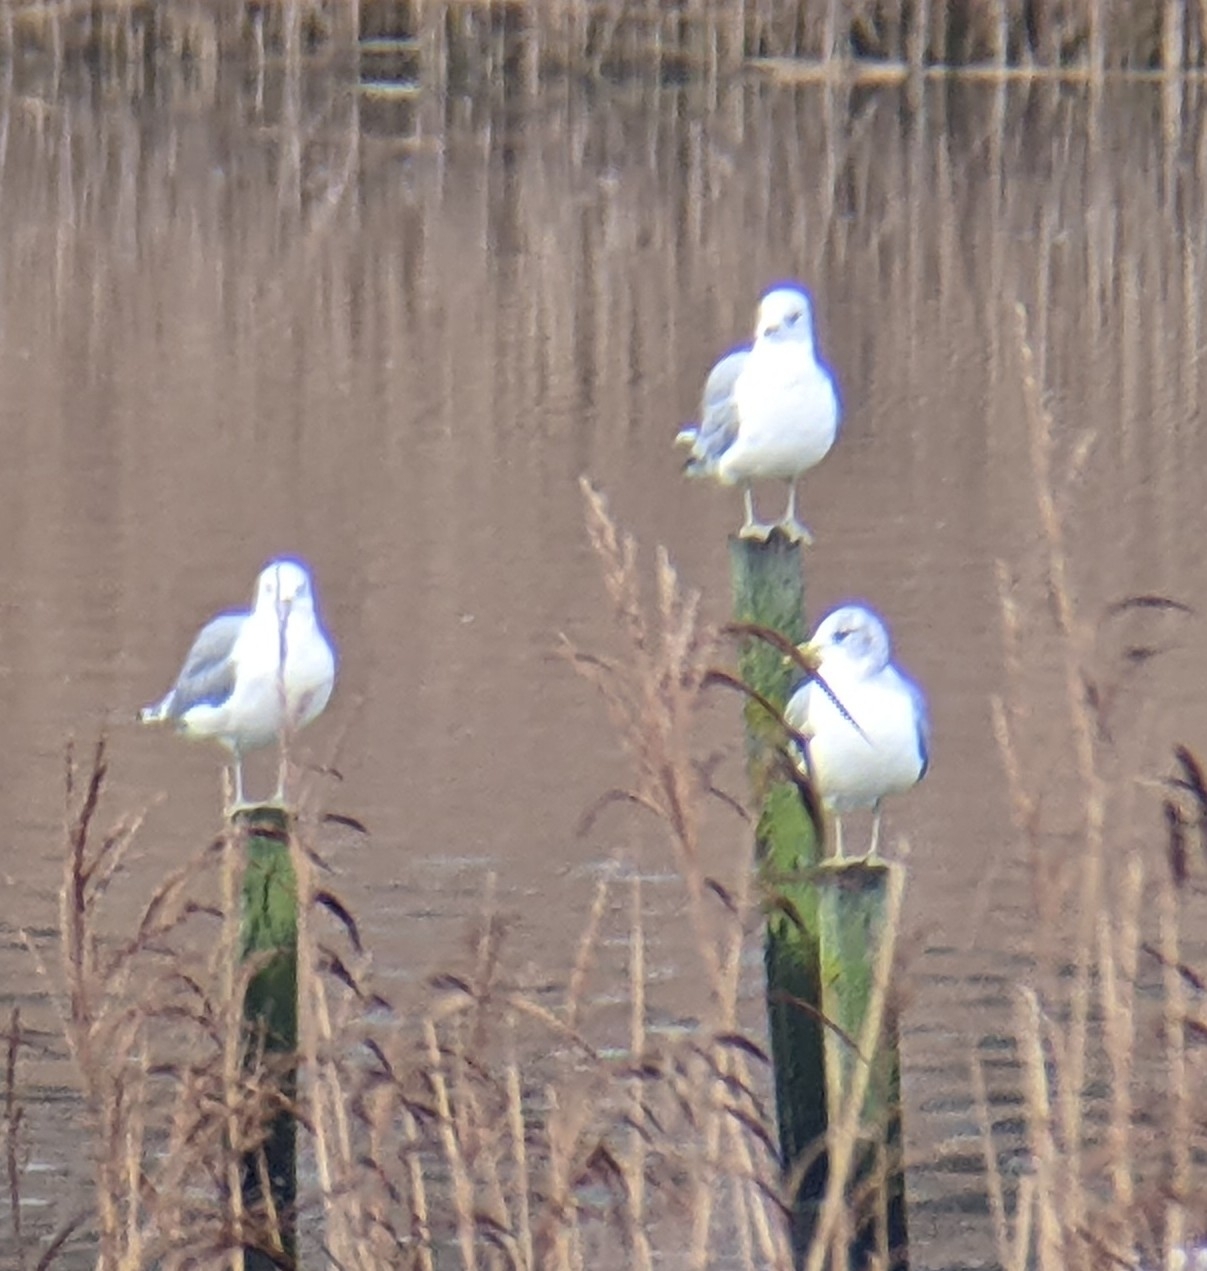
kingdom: Animalia
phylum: Chordata
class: Aves
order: Charadriiformes
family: Laridae
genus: Larus
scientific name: Larus canus
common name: Mew gull
